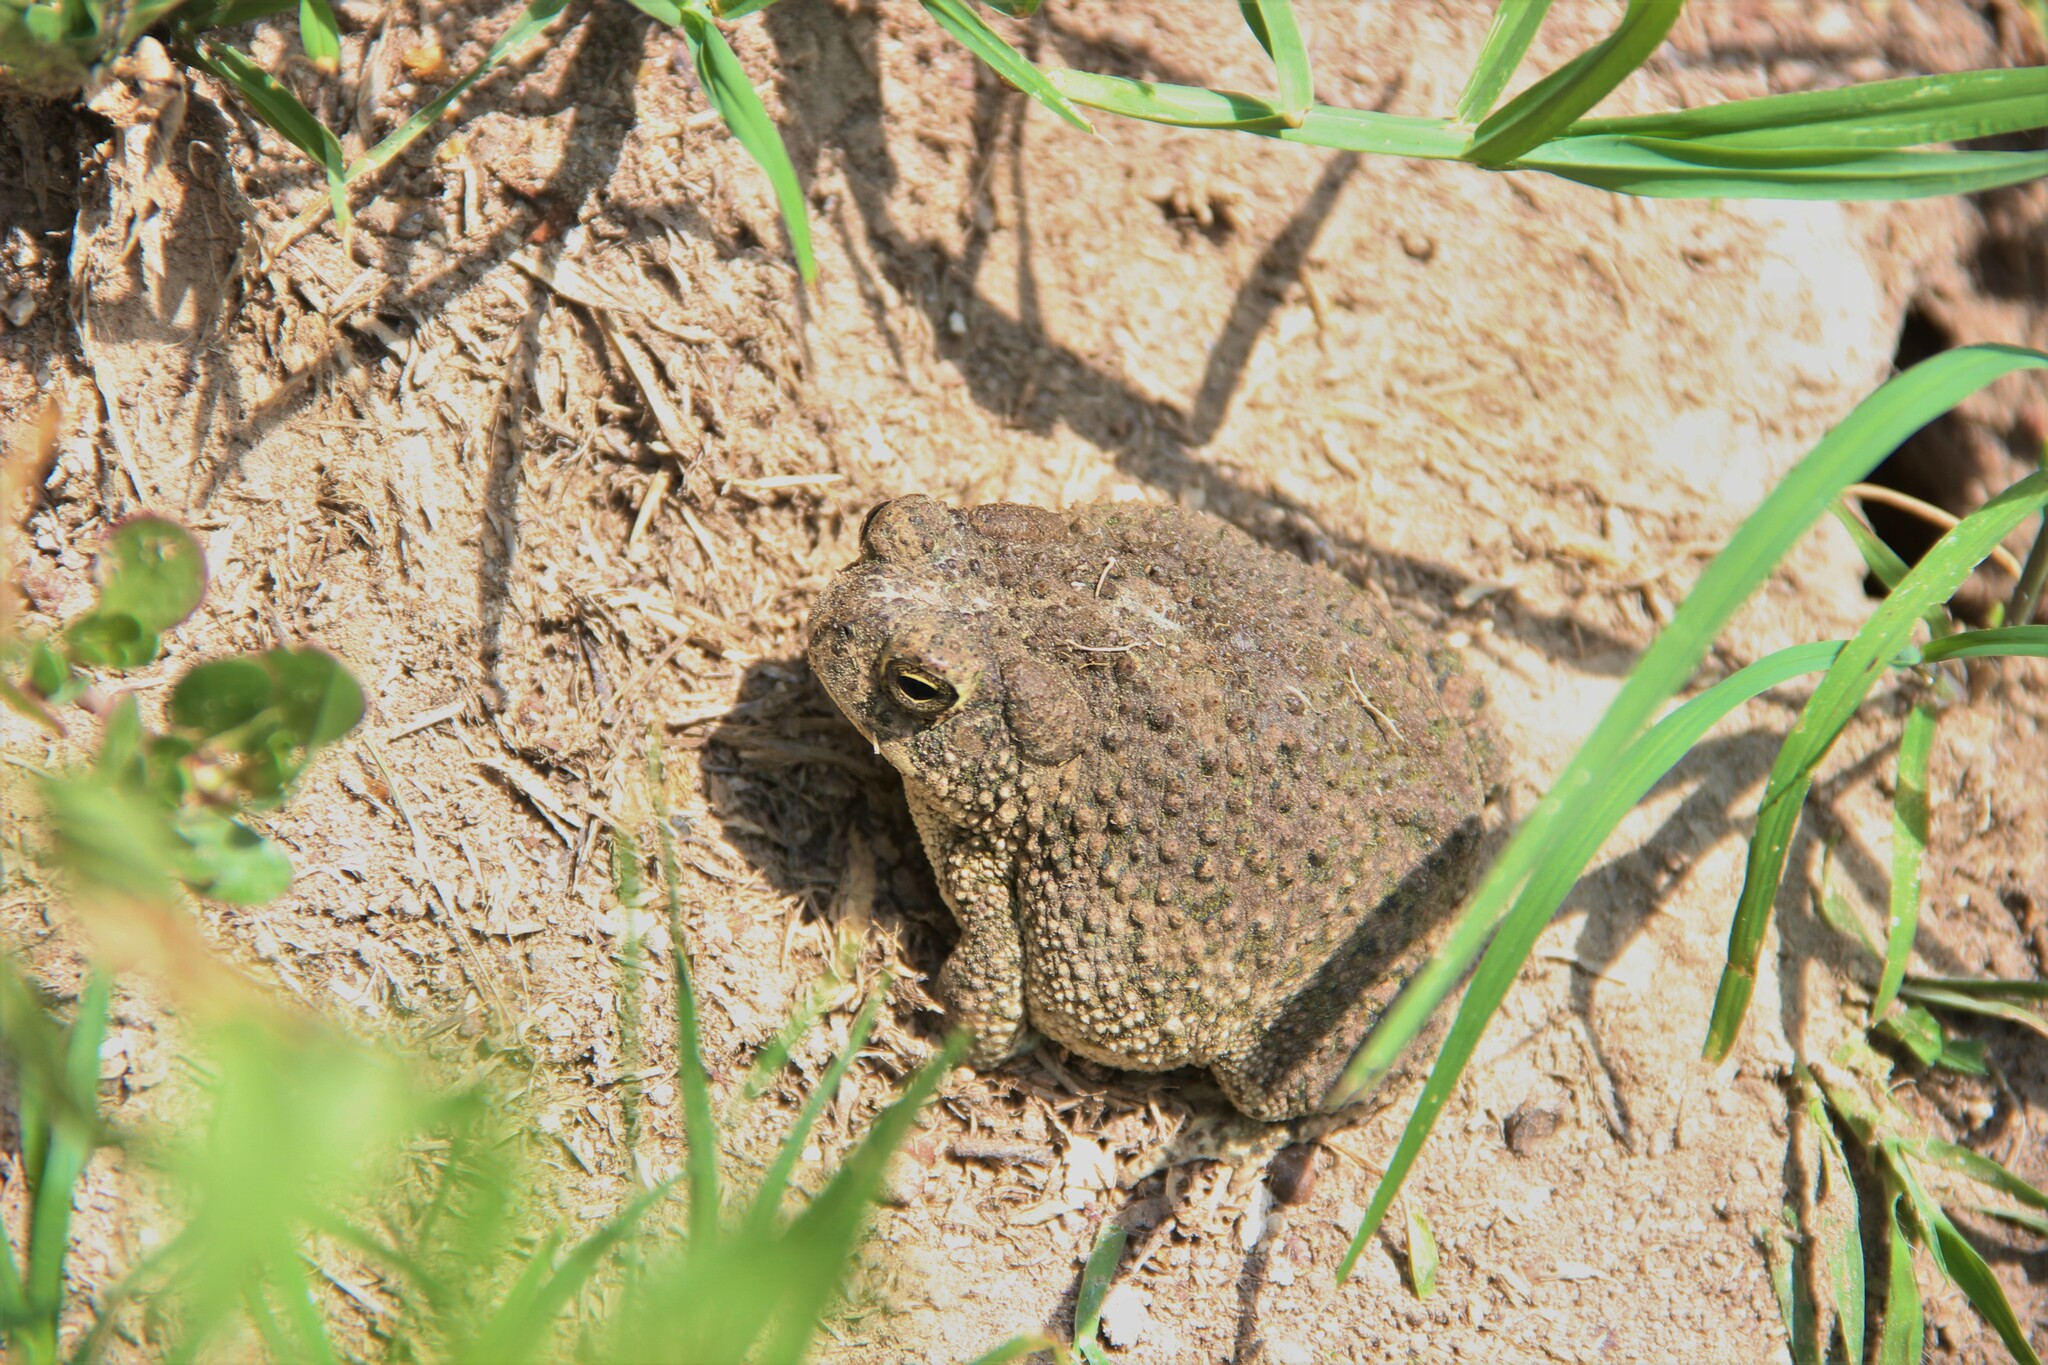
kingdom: Animalia
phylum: Chordata
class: Amphibia
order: Anura
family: Bufonidae
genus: Anaxyrus
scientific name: Anaxyrus compactilis
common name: Plateau toad
